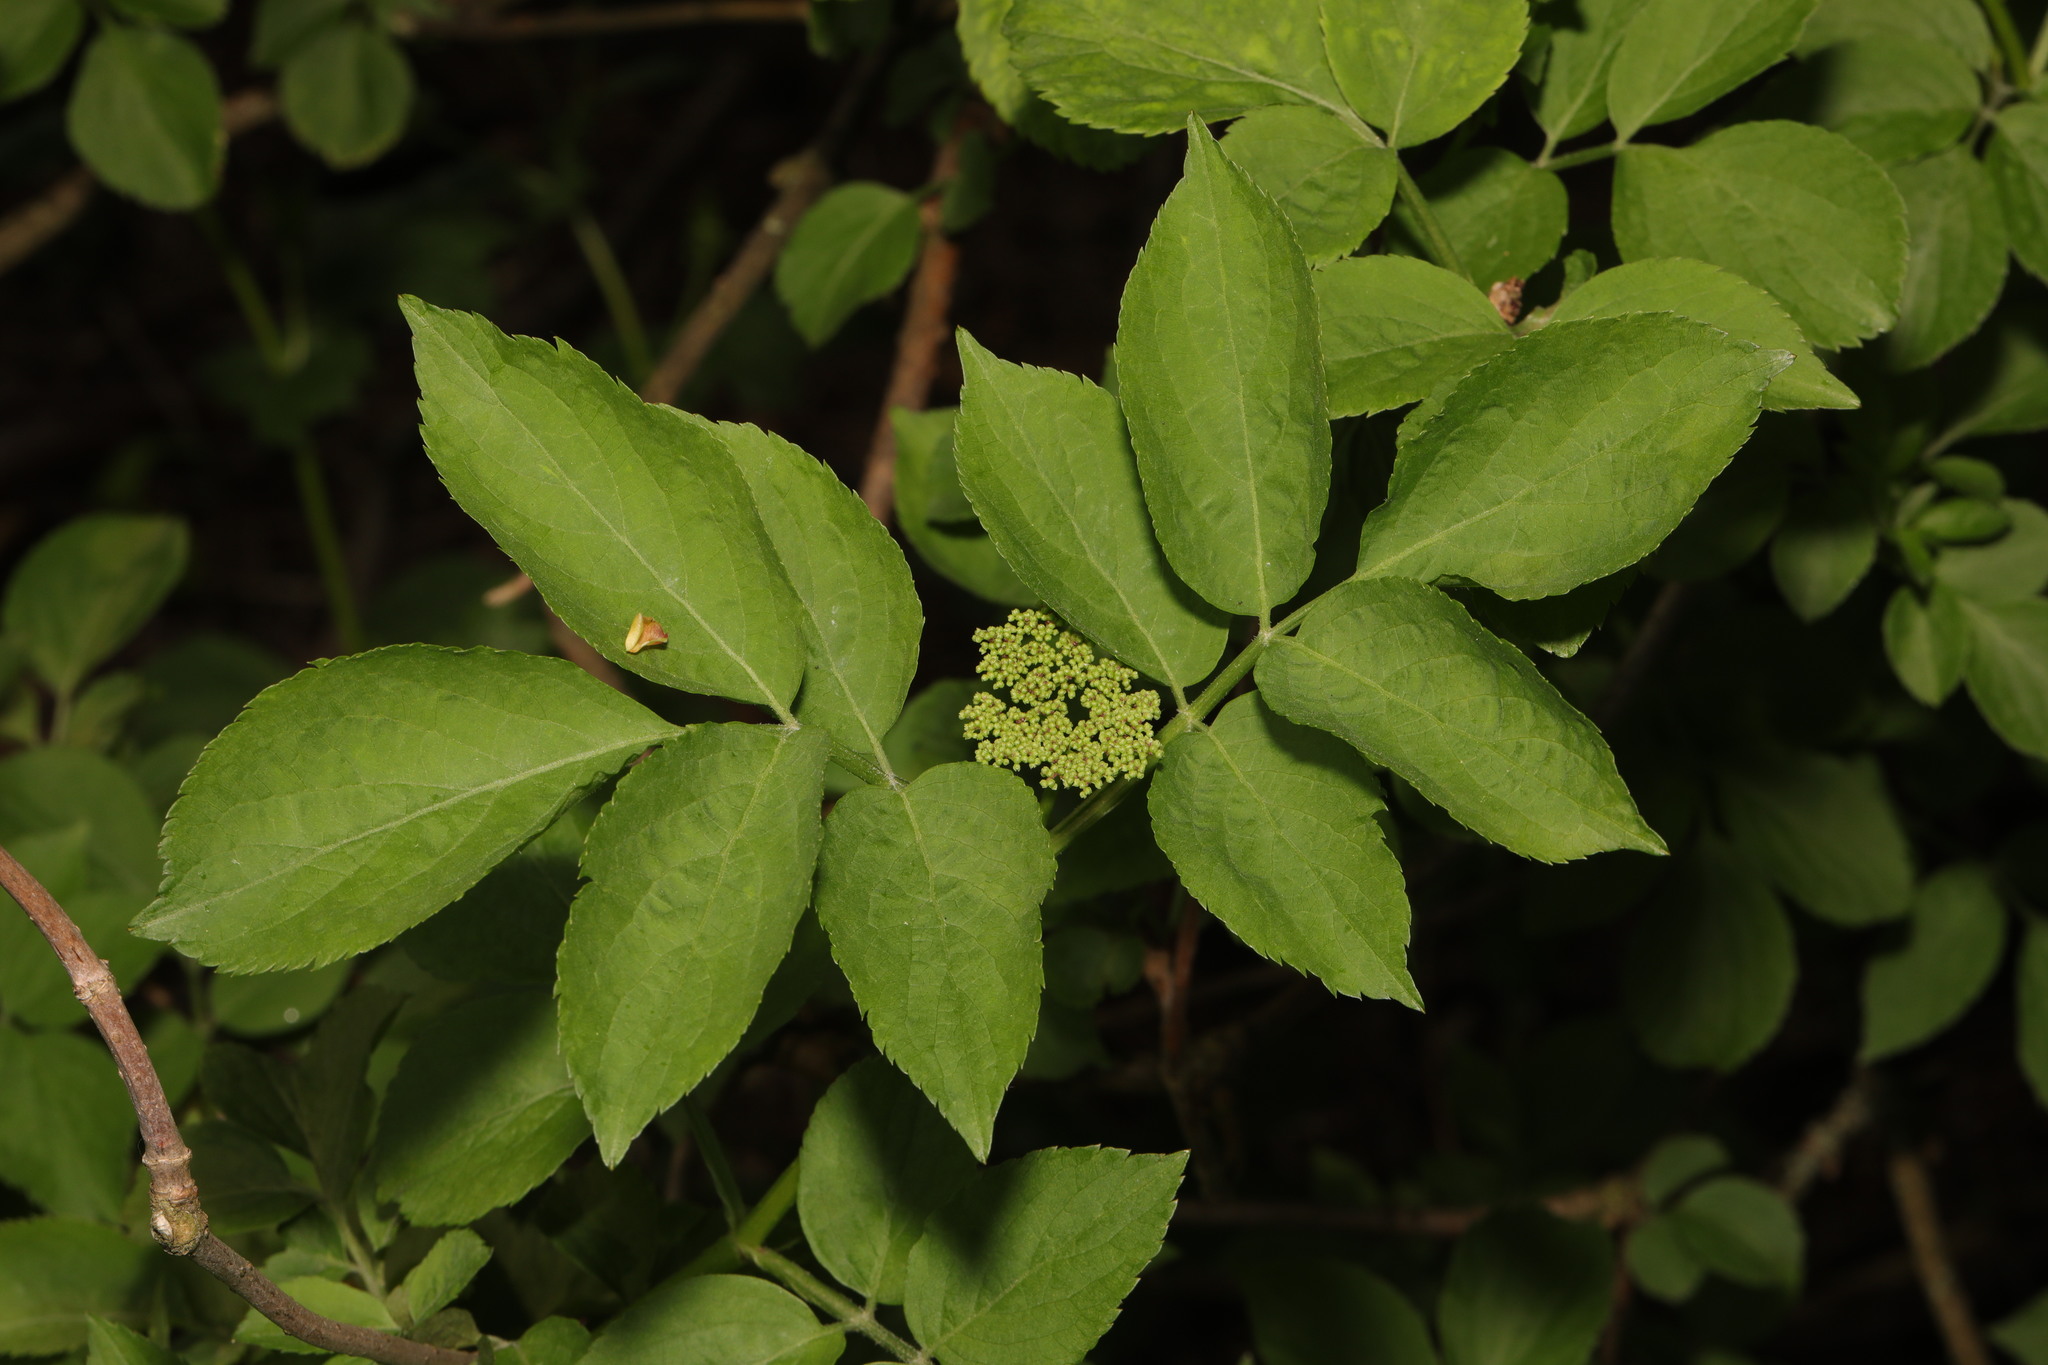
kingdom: Plantae
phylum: Tracheophyta
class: Magnoliopsida
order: Dipsacales
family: Viburnaceae
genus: Sambucus
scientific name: Sambucus nigra
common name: Elder
